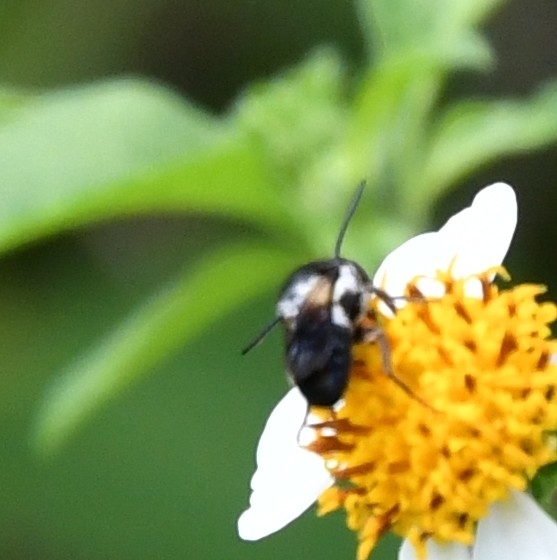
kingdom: Animalia
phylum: Arthropoda
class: Insecta
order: Hymenoptera
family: Megachilidae
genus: Megachile
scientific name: Megachile disjuncta
